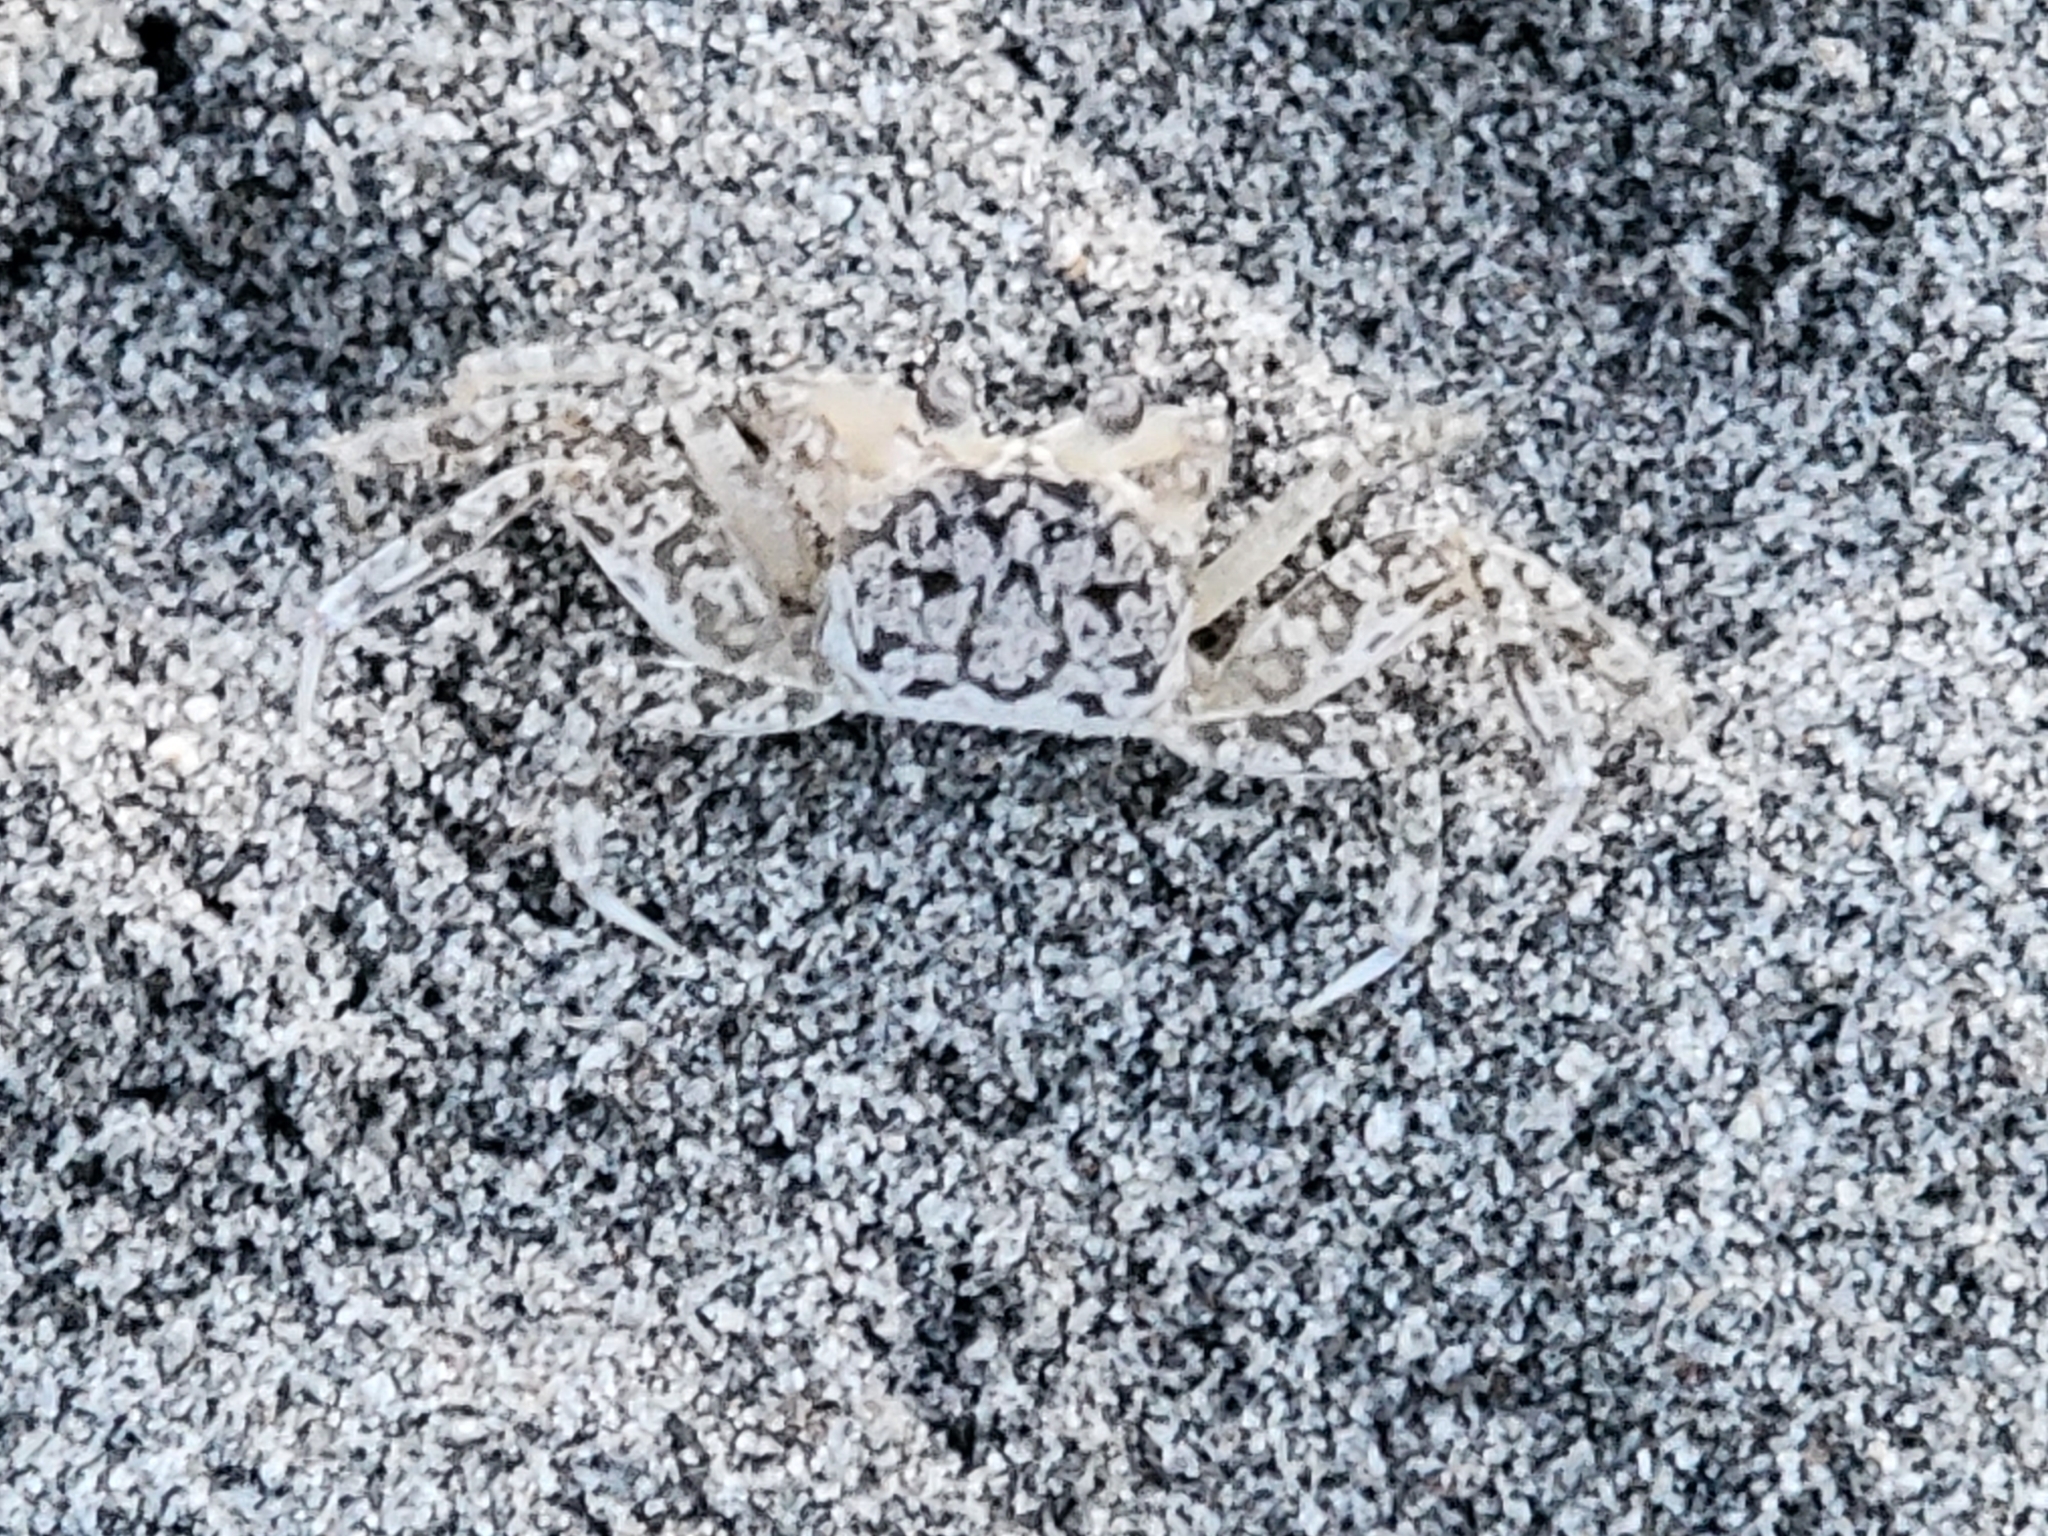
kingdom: Animalia
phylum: Arthropoda
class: Malacostraca
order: Decapoda
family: Ocypodidae
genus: Ocypode
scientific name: Ocypode quadrata
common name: Ghost crab
